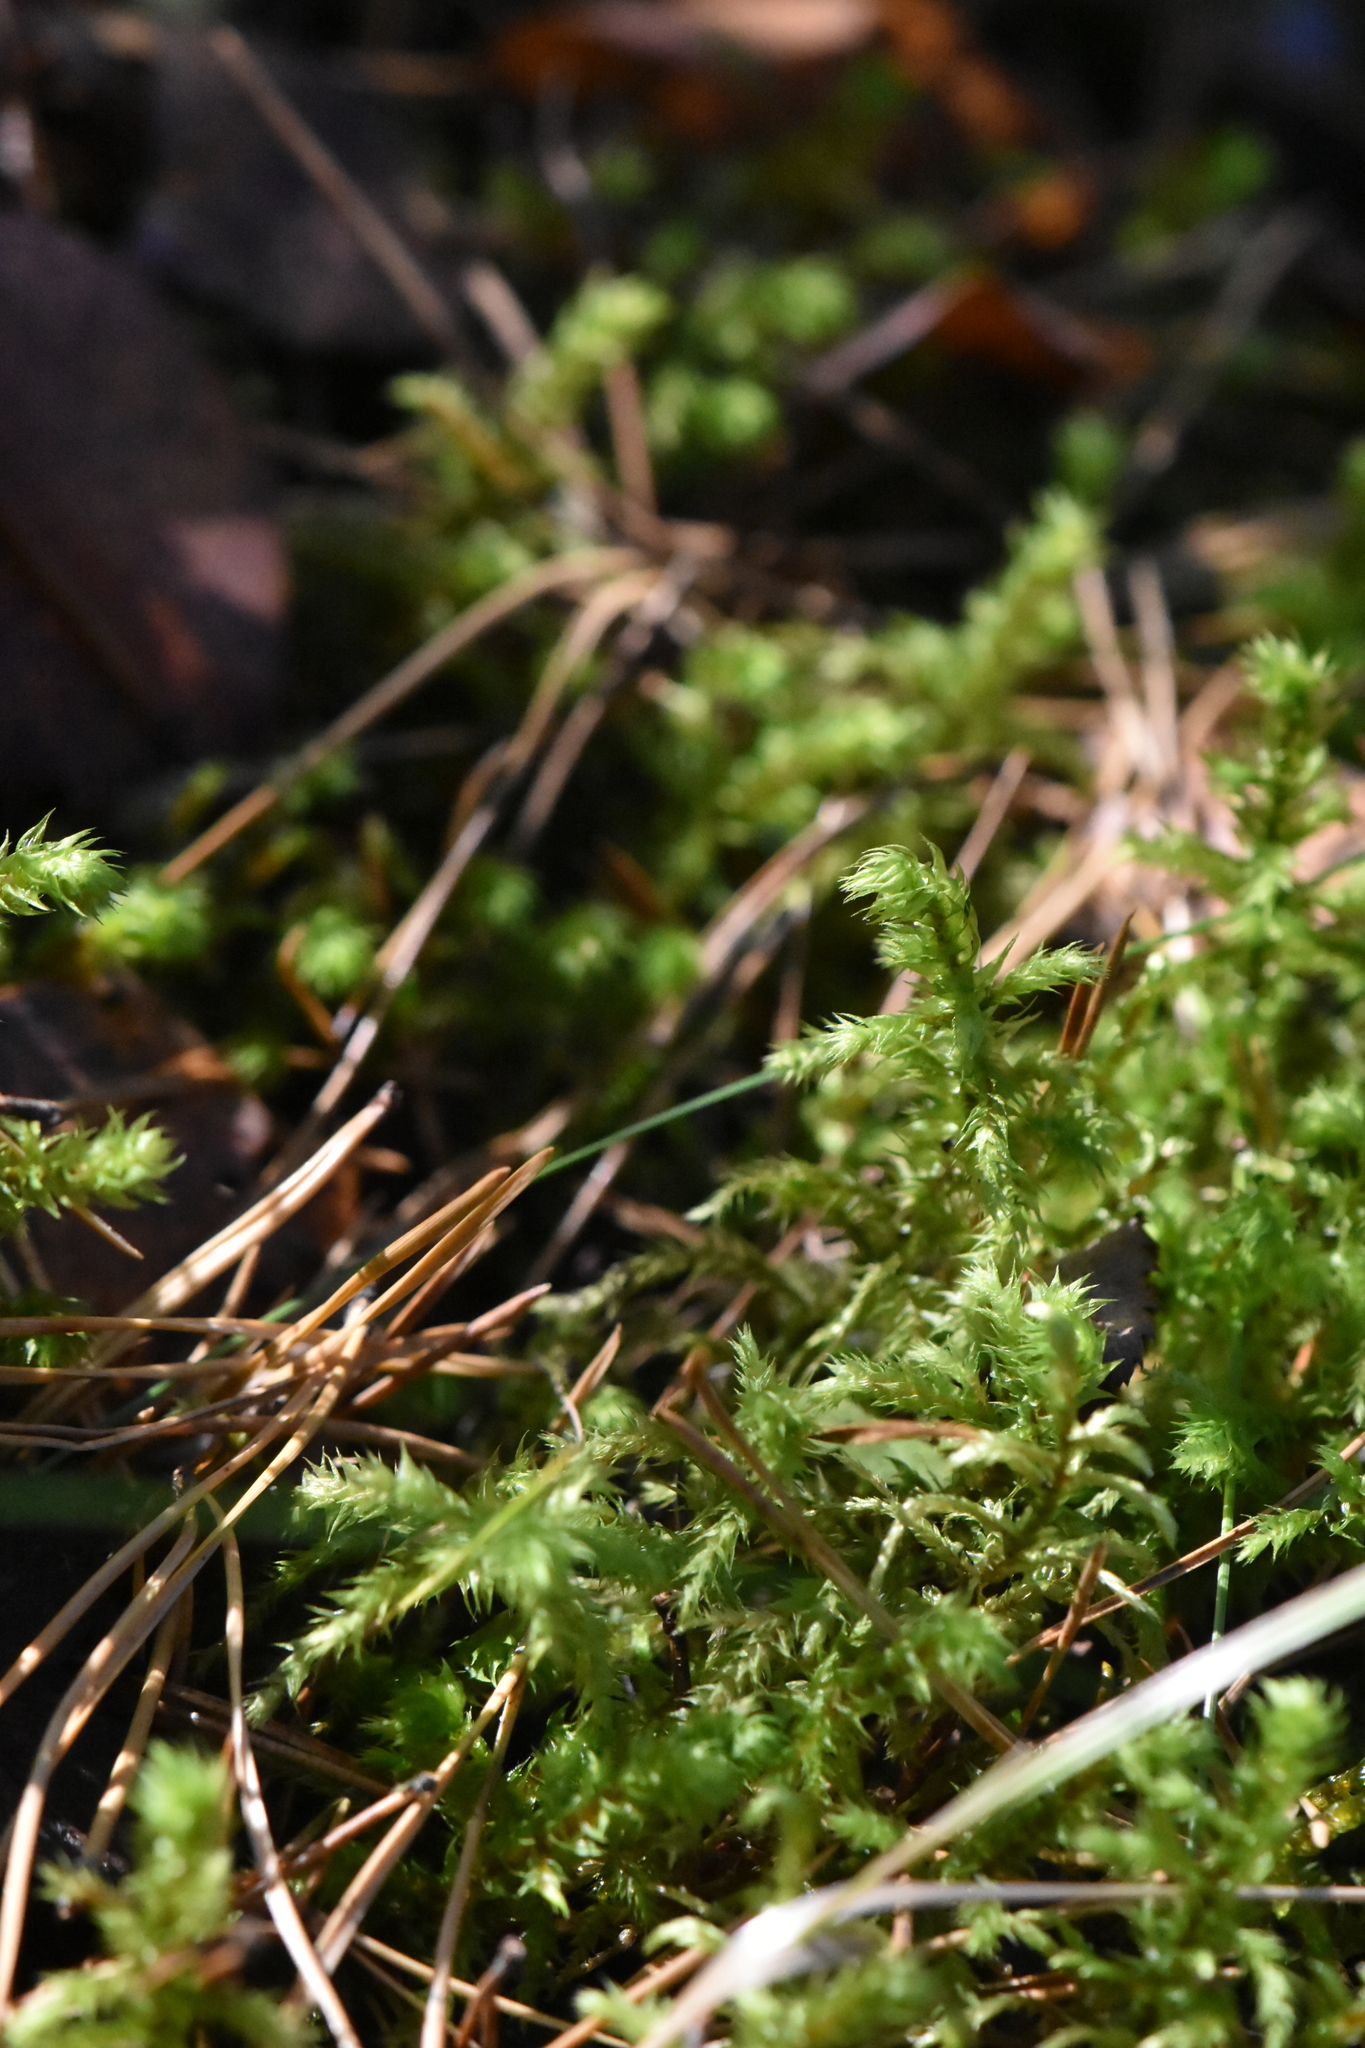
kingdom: Plantae
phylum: Bryophyta
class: Bryopsida
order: Hypnales
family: Hylocomiaceae
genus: Hylocomiadelphus
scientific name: Hylocomiadelphus triquetrus
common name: Rough goose neck moss
